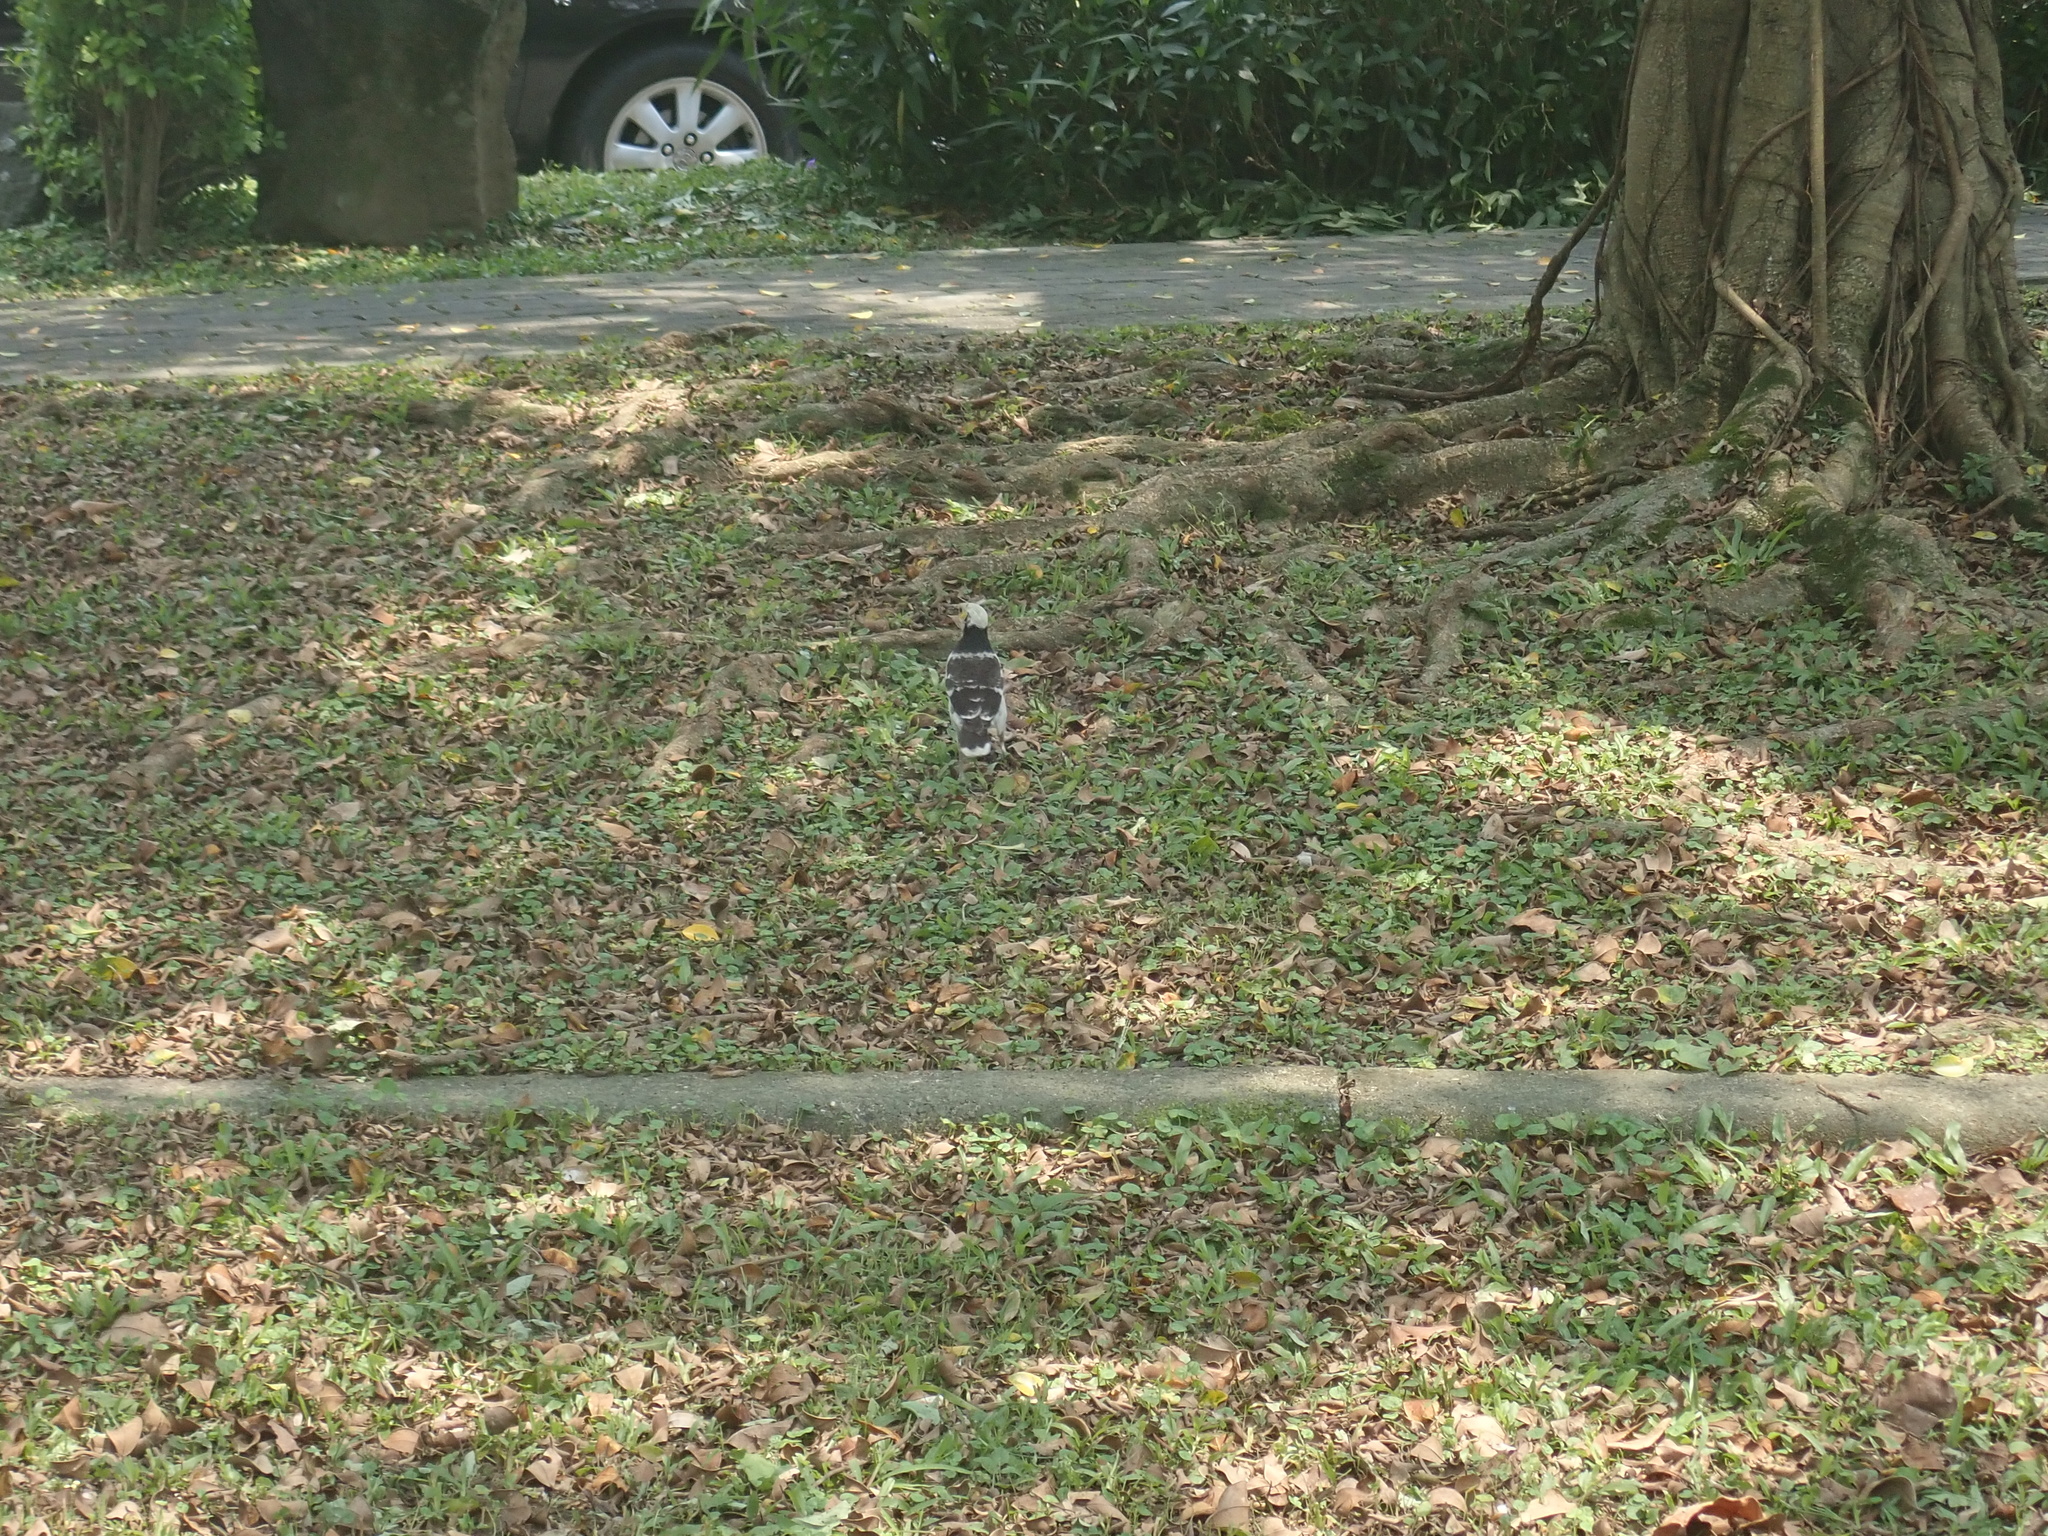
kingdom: Animalia
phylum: Chordata
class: Aves
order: Passeriformes
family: Sturnidae
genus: Gracupica
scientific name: Gracupica nigricollis
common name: Black-collared starling
